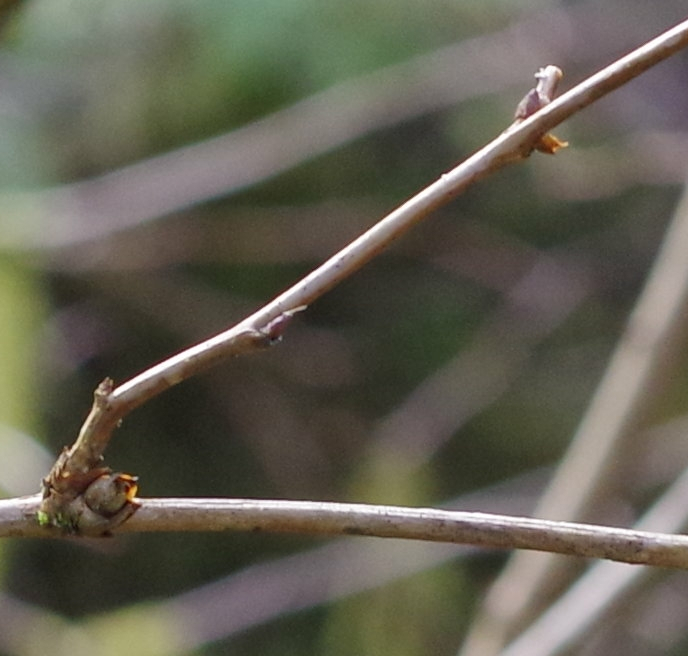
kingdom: Plantae
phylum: Tracheophyta
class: Magnoliopsida
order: Dipsacales
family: Caprifoliaceae
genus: Symphoricarpos
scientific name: Symphoricarpos albus
